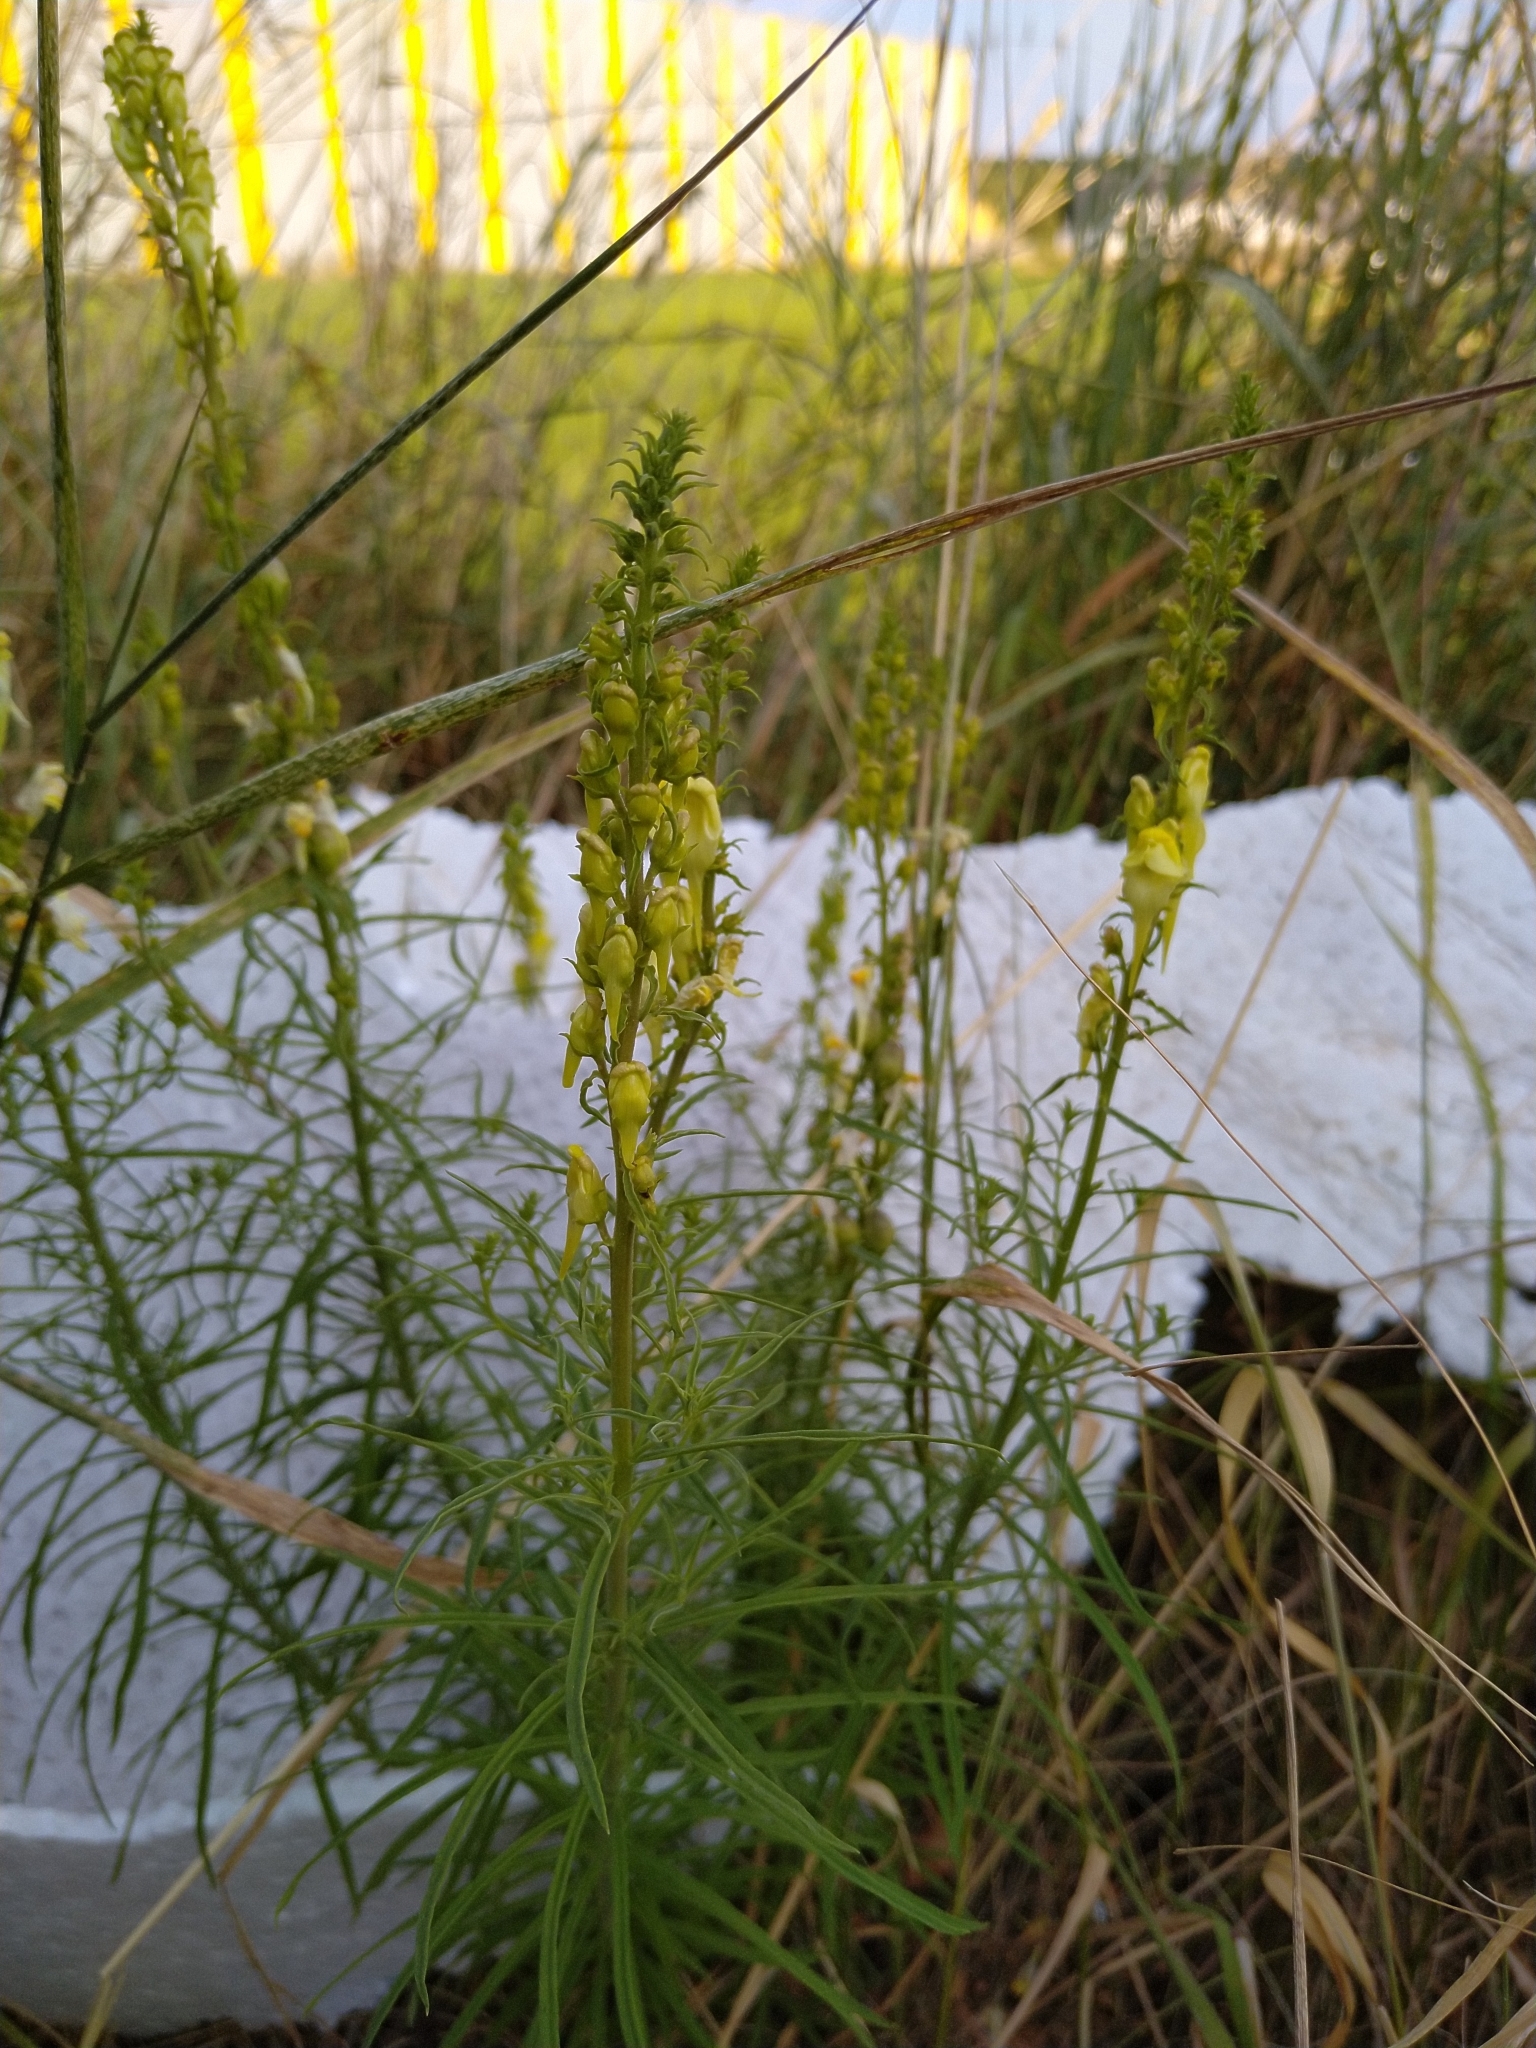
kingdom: Plantae
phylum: Tracheophyta
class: Magnoliopsida
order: Lamiales
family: Plantaginaceae
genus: Linaria
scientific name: Linaria vulgaris
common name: Butter and eggs
